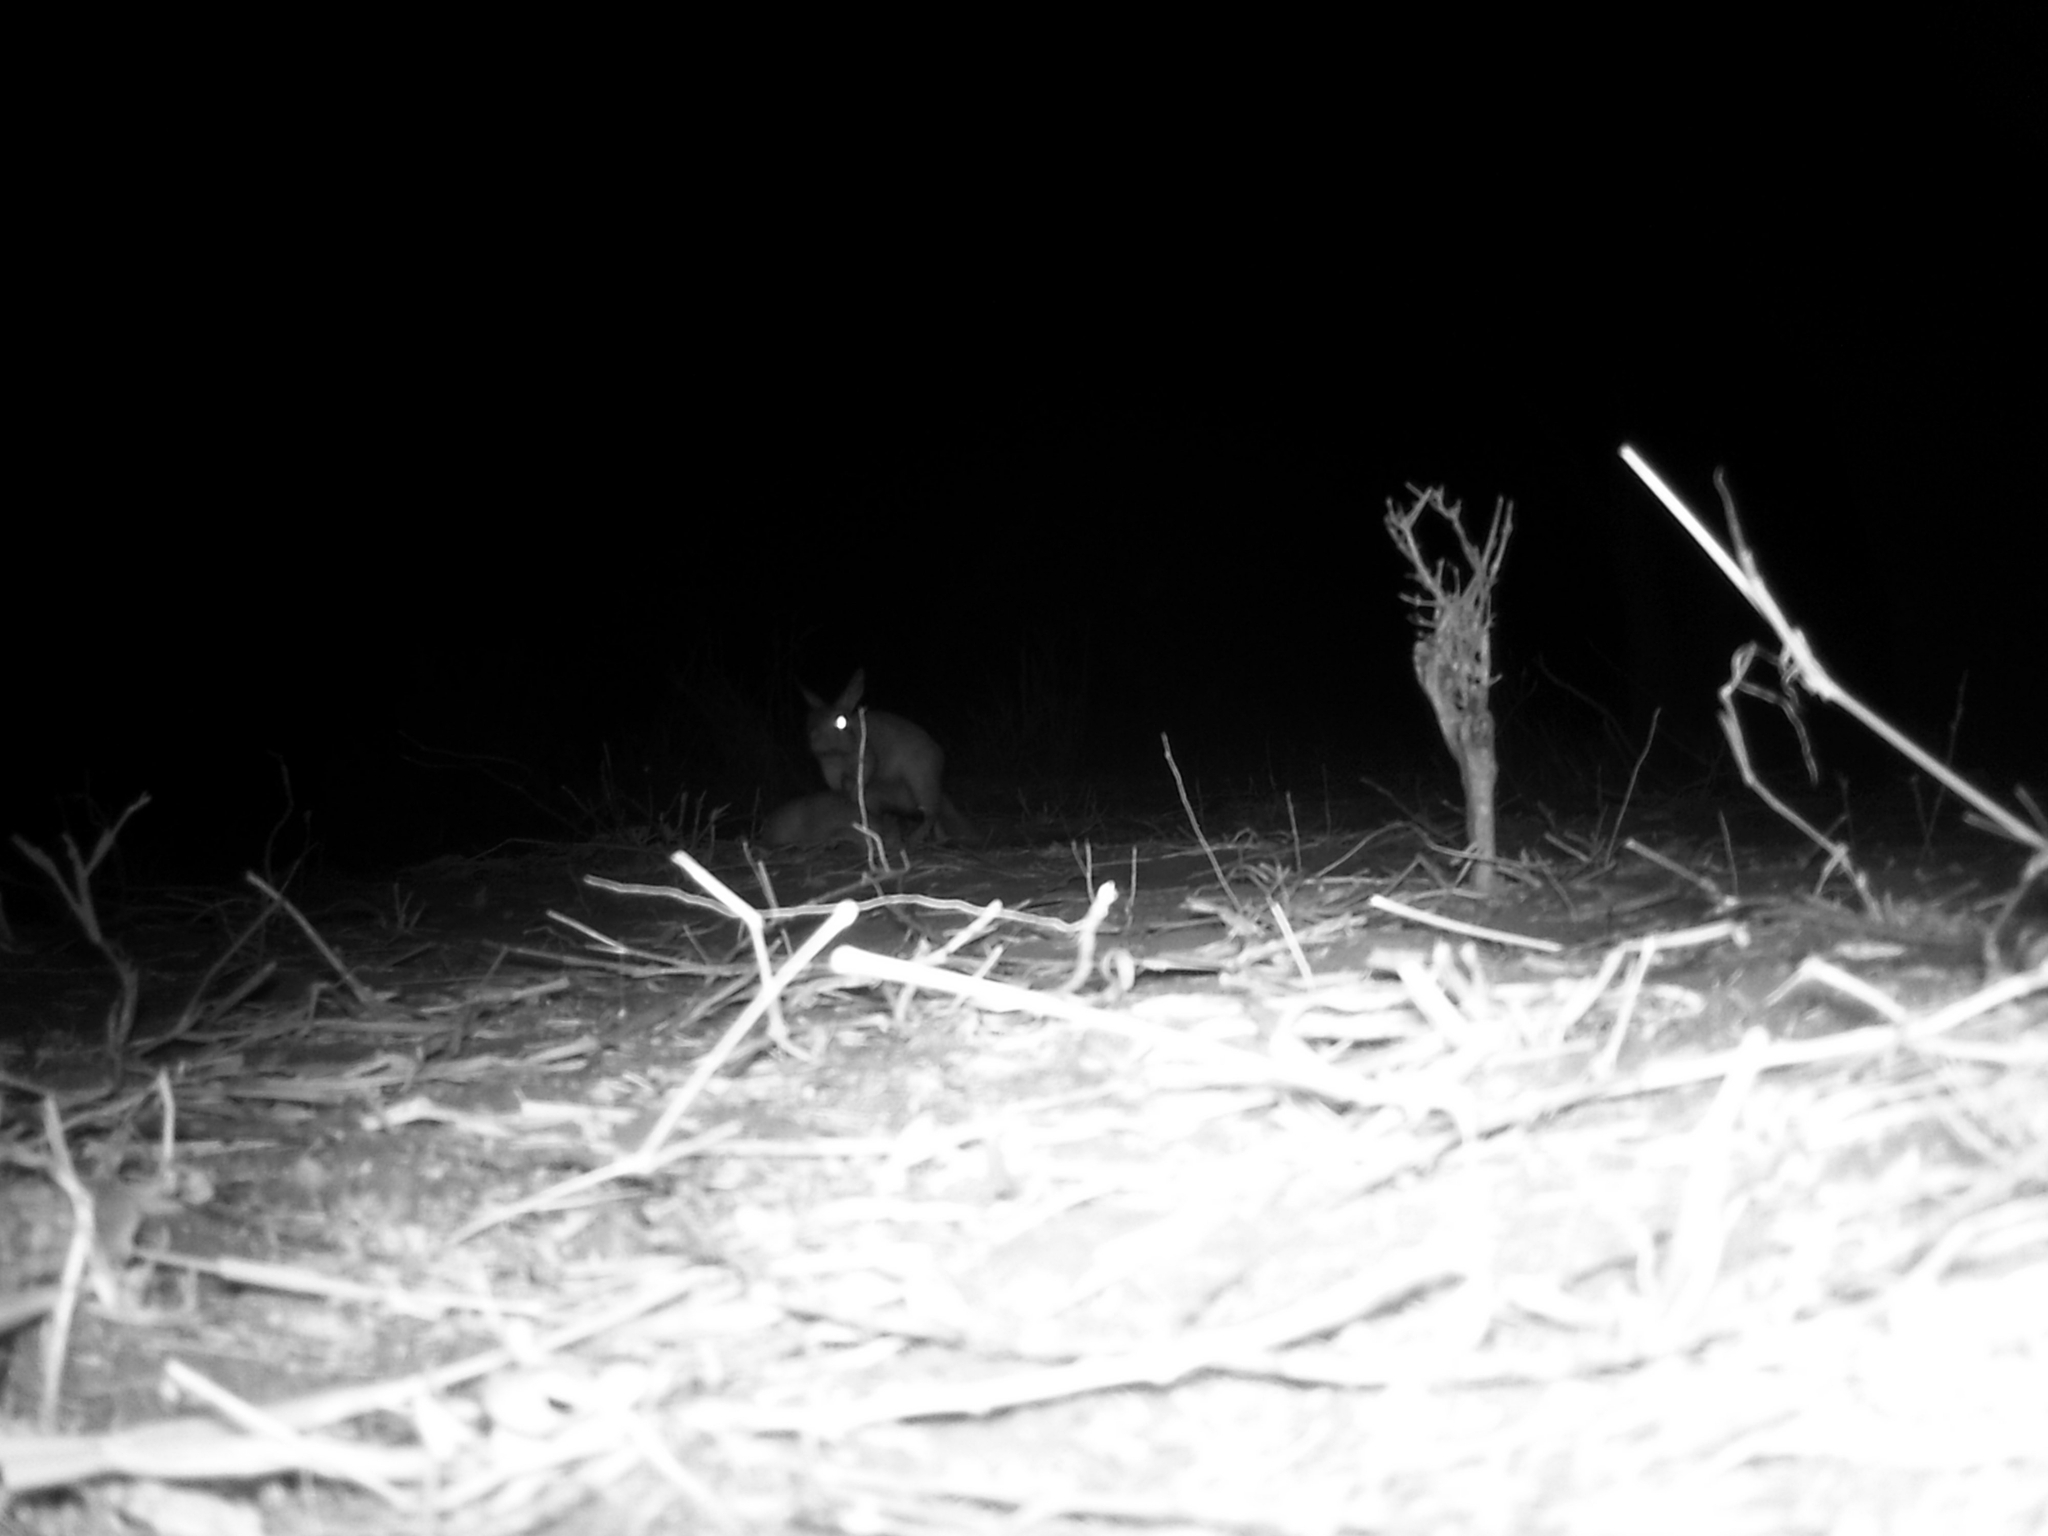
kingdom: Animalia
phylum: Chordata
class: Mammalia
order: Rodentia
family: Pedetidae
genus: Pedetes
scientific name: Pedetes surdaster
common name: East african spring hare
